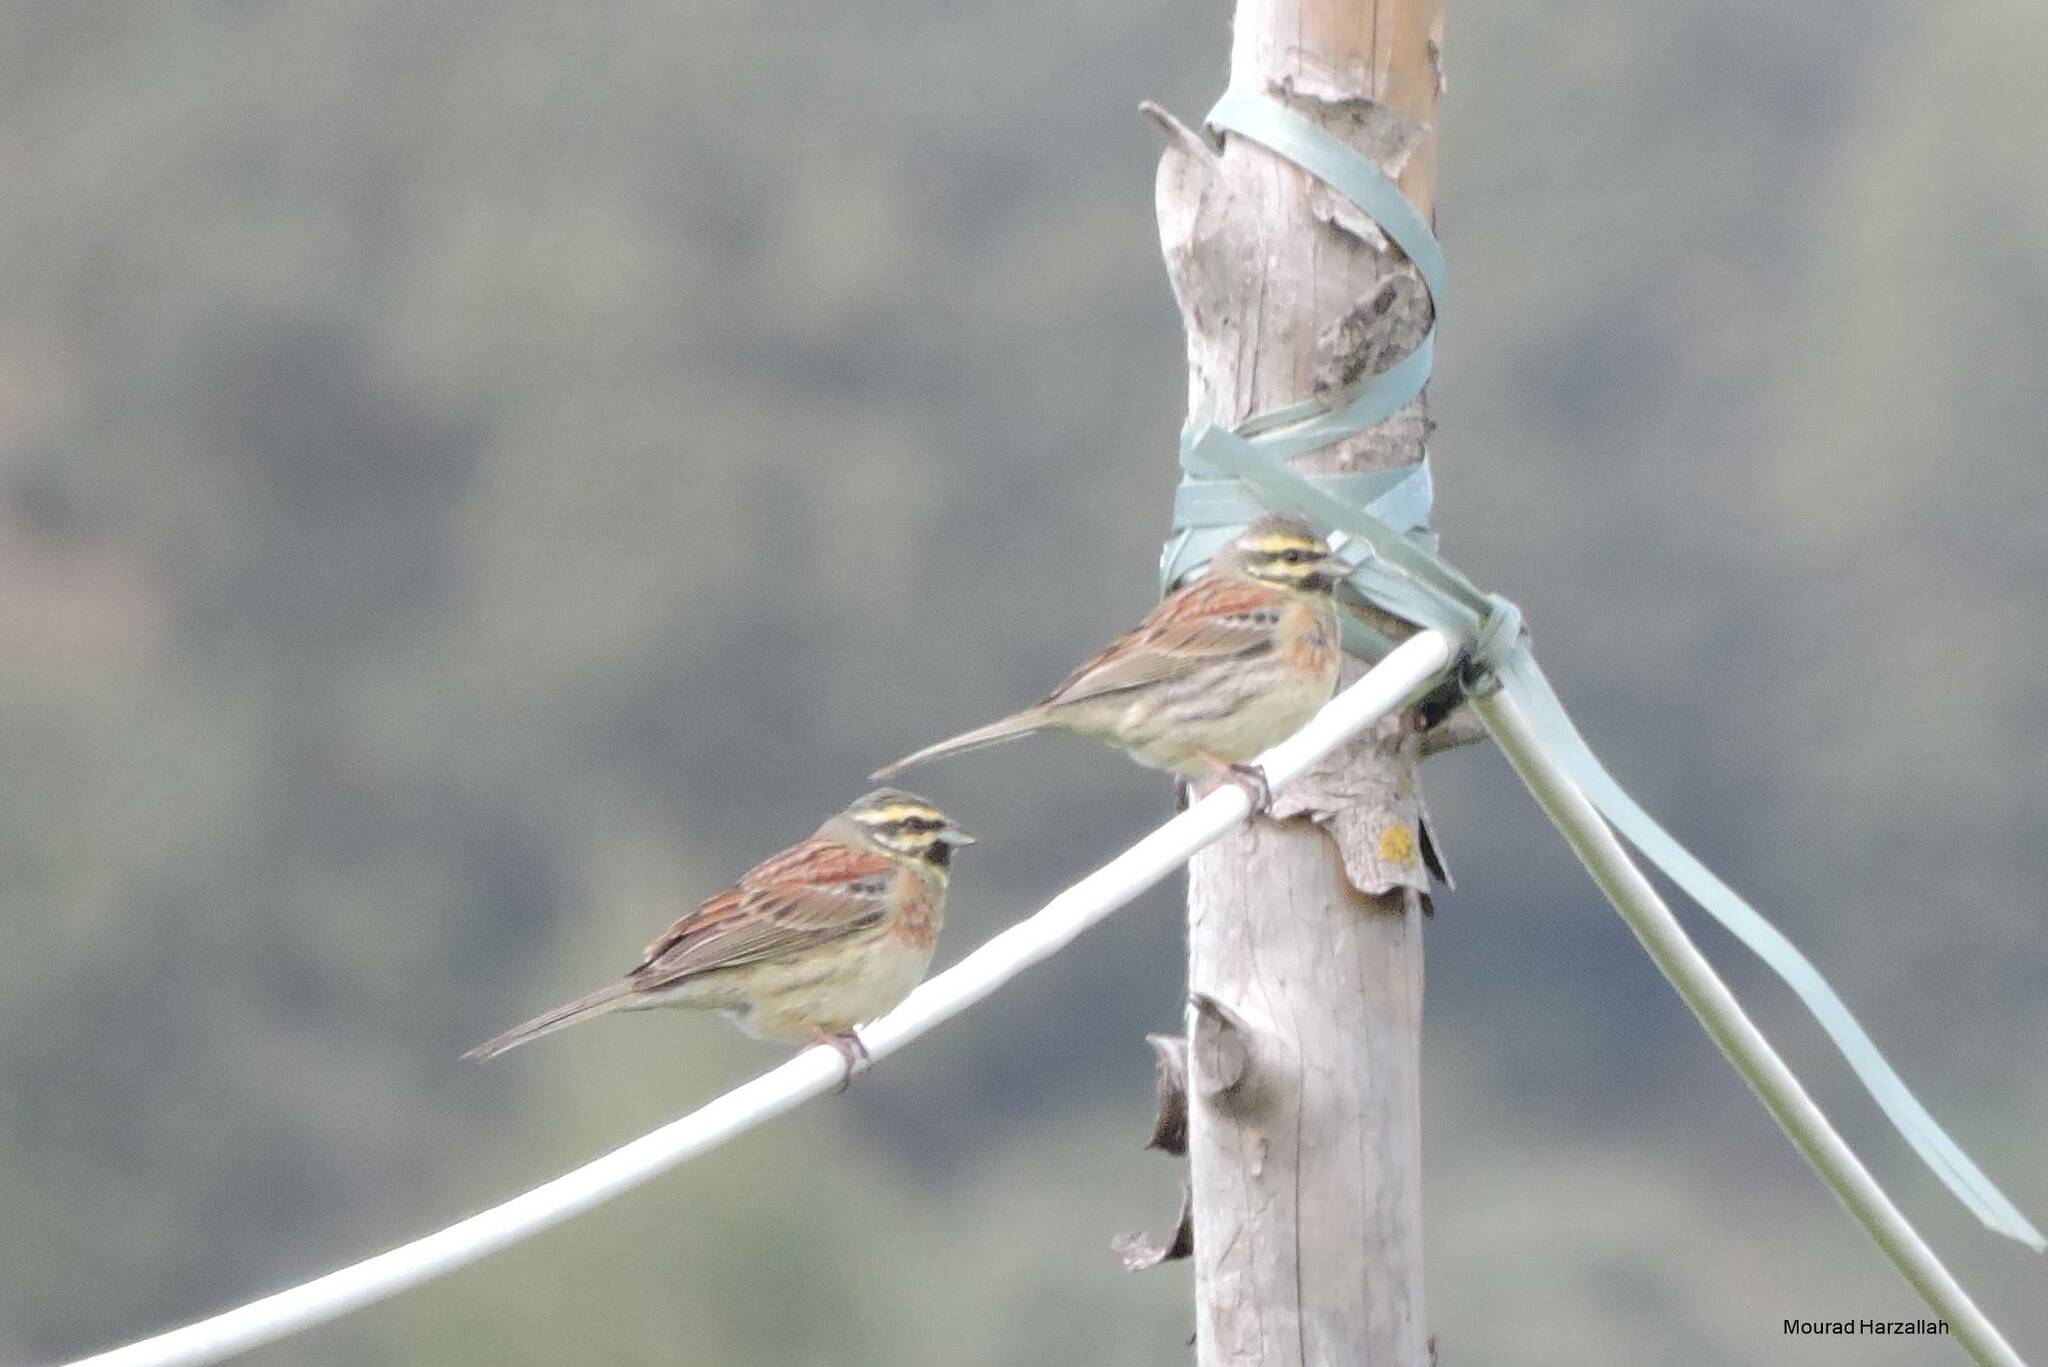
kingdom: Animalia
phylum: Chordata
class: Aves
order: Passeriformes
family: Emberizidae
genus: Emberiza
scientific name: Emberiza cirlus
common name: Cirl bunting
